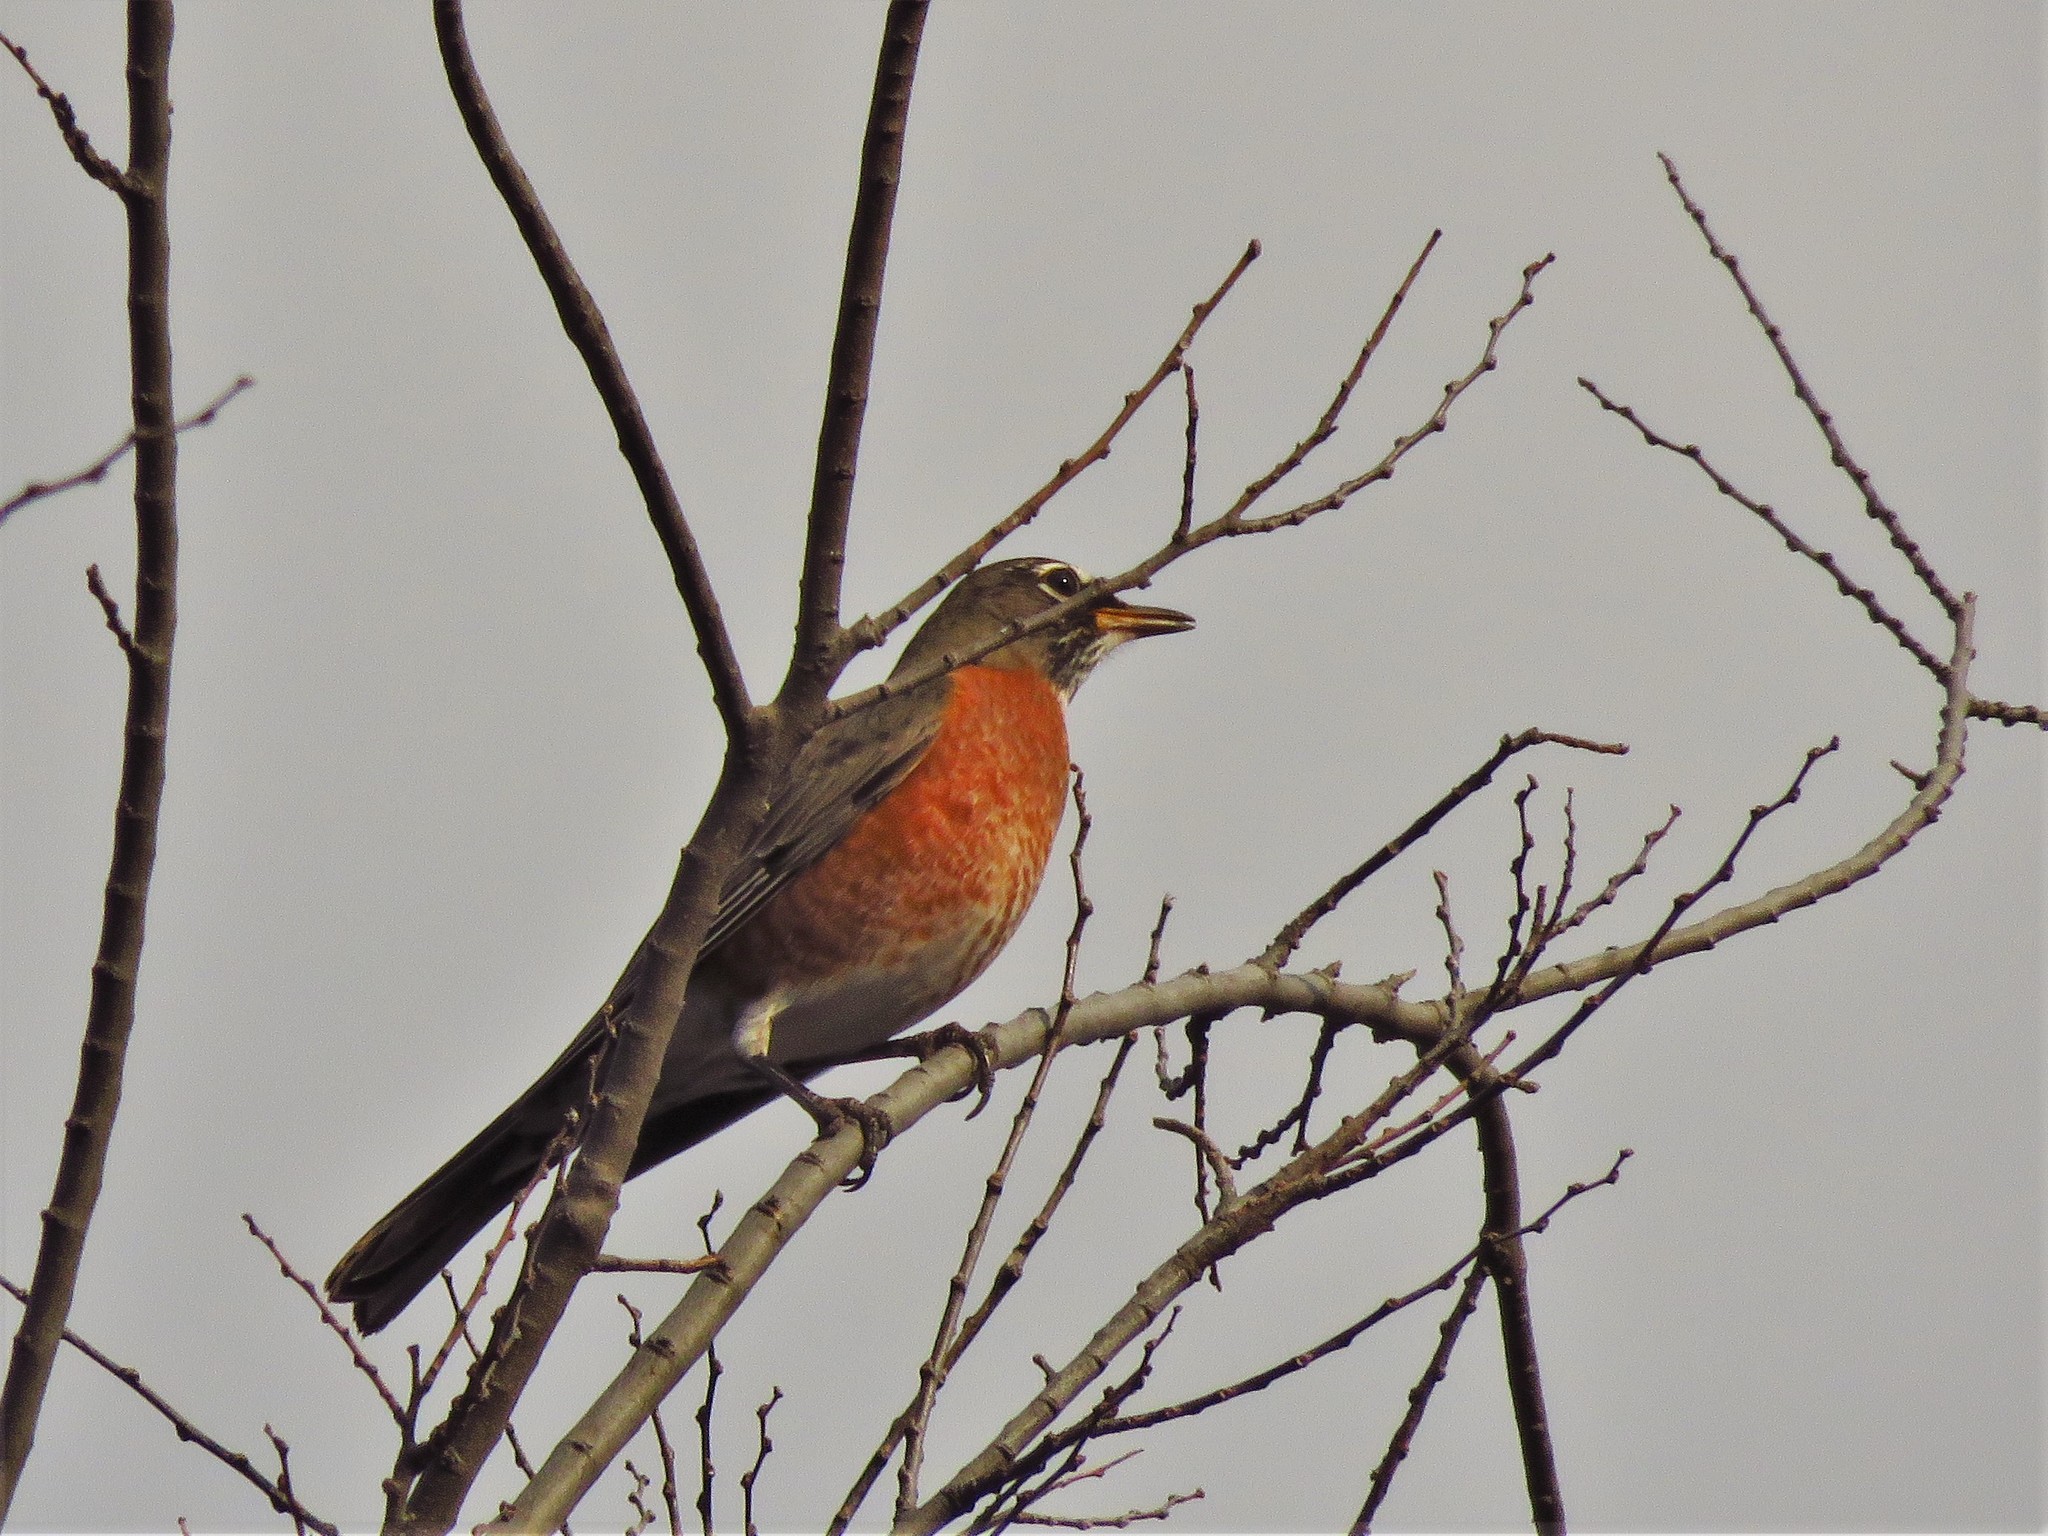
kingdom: Animalia
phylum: Chordata
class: Aves
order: Passeriformes
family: Turdidae
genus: Turdus
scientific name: Turdus migratorius
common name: American robin
